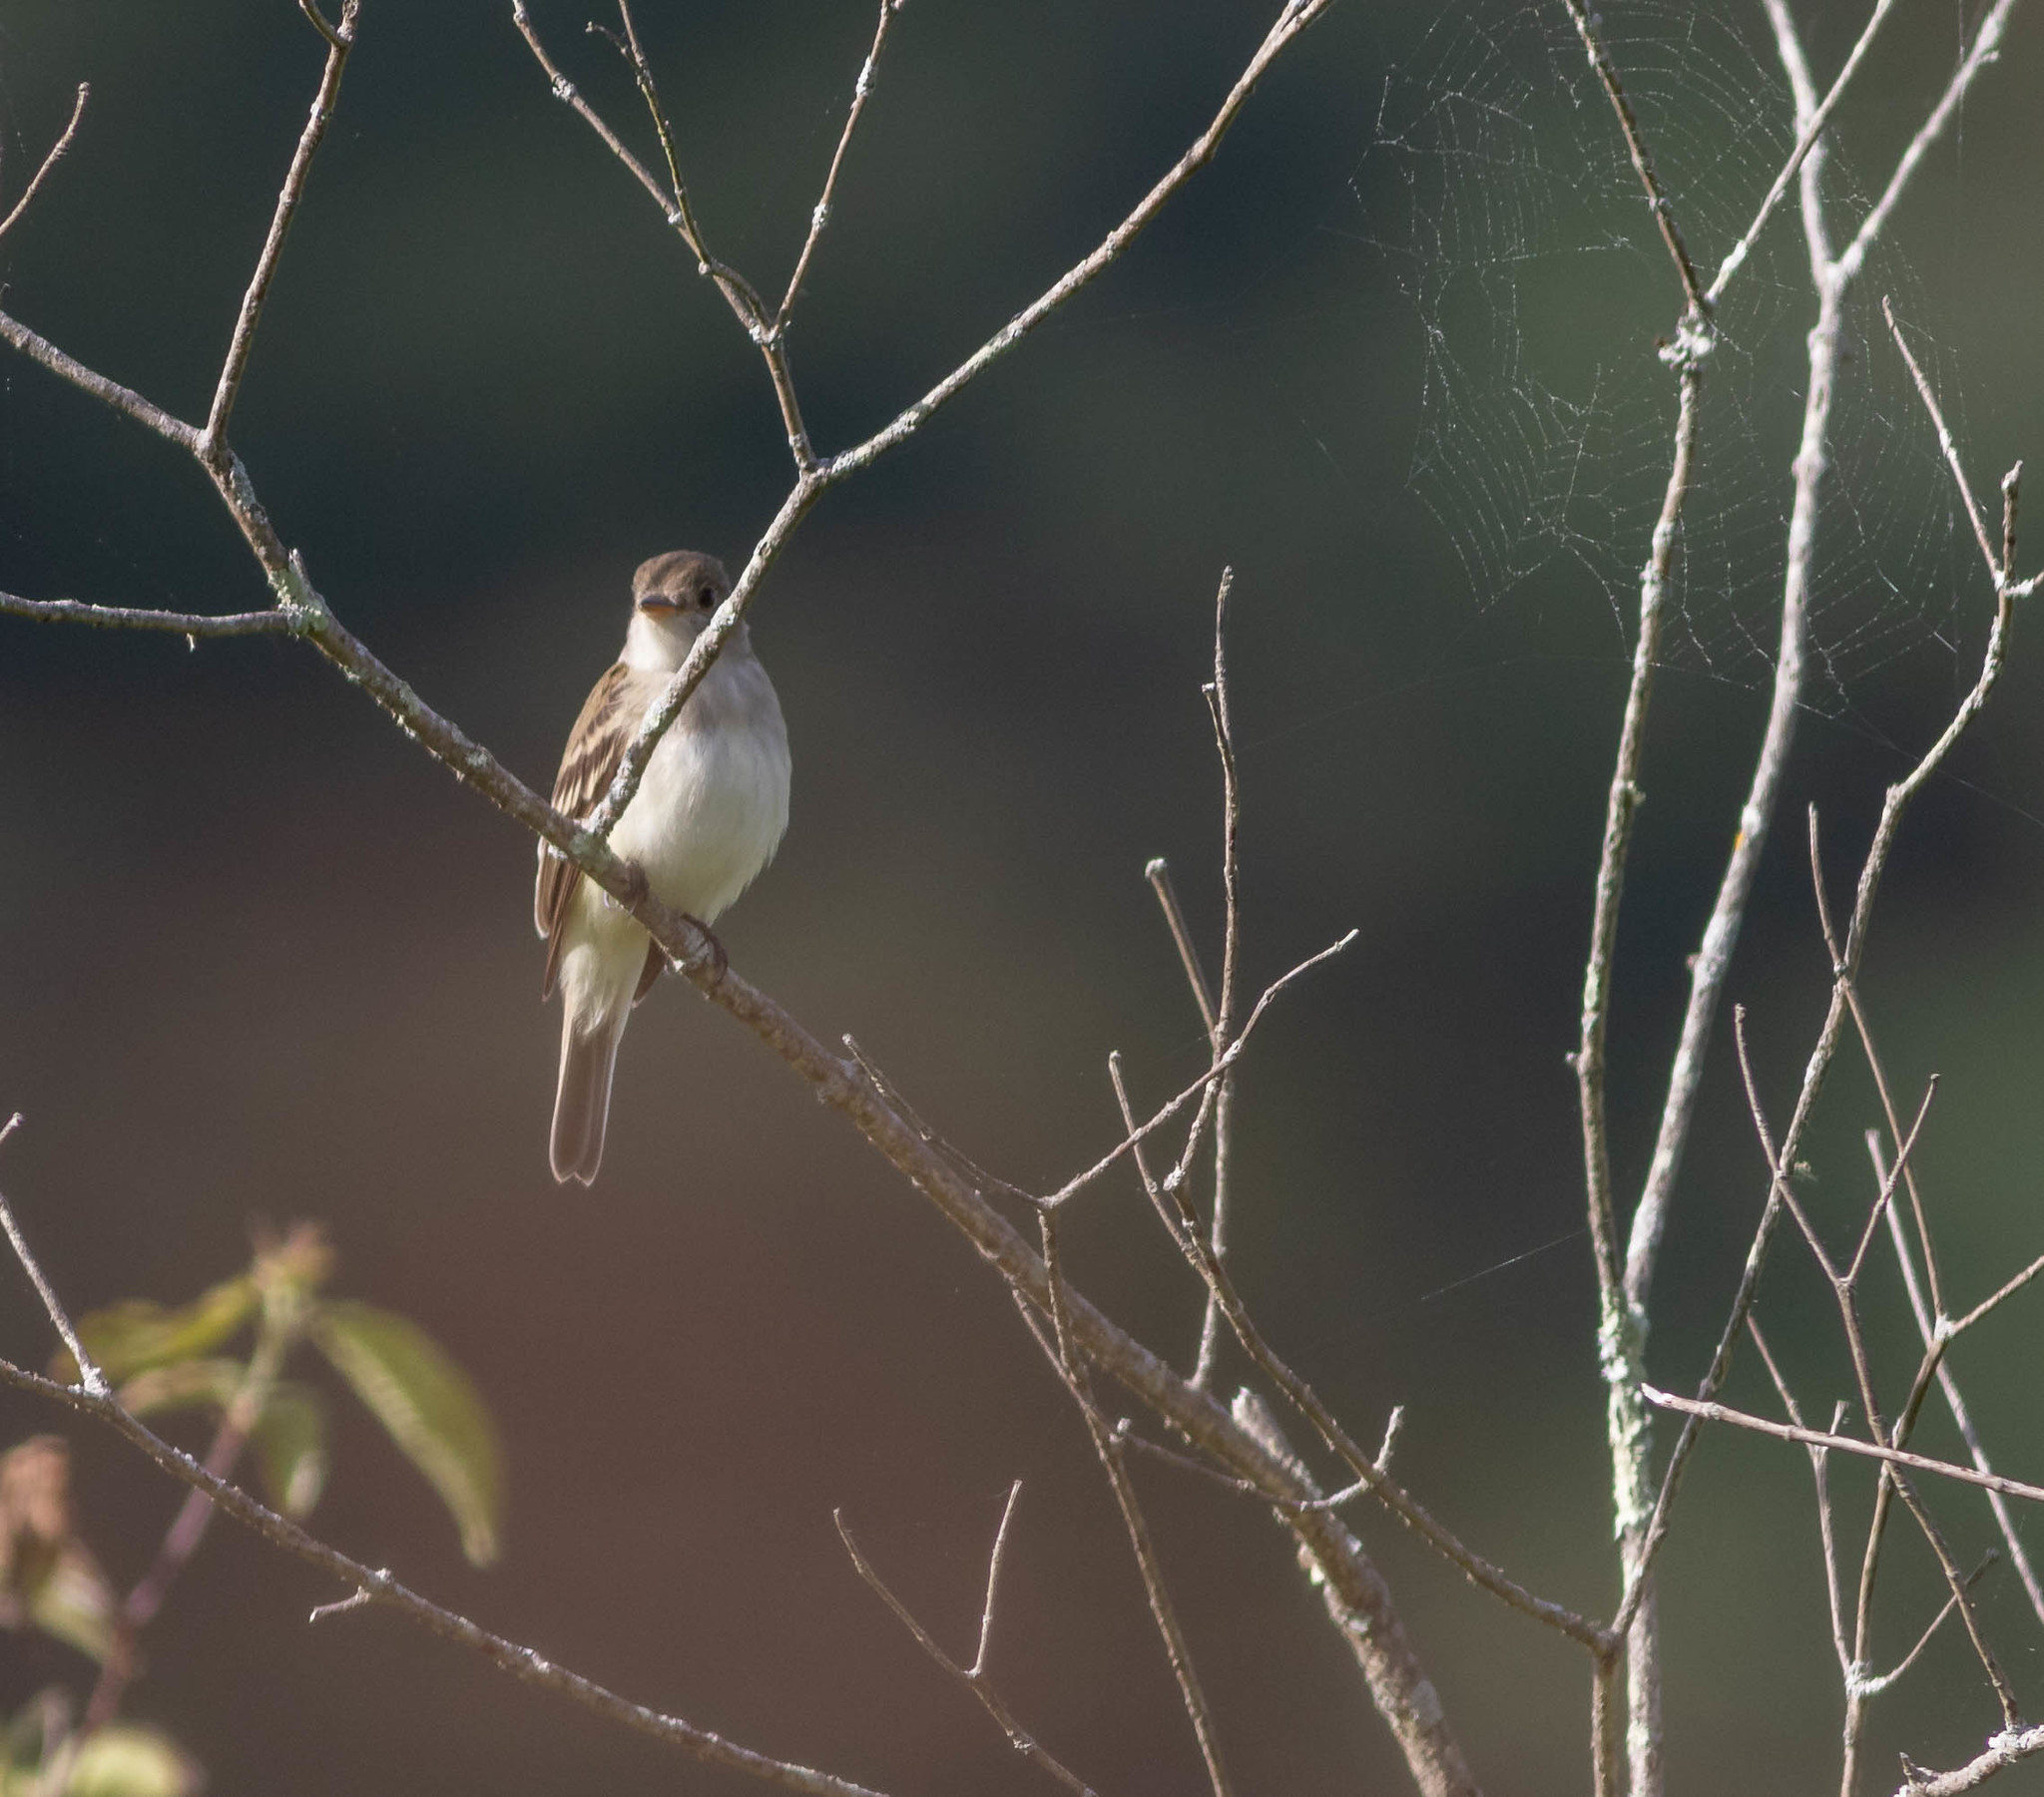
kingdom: Animalia
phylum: Chordata
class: Aves
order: Passeriformes
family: Tyrannidae
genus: Empidonax
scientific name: Empidonax traillii
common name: Willow flycatcher
